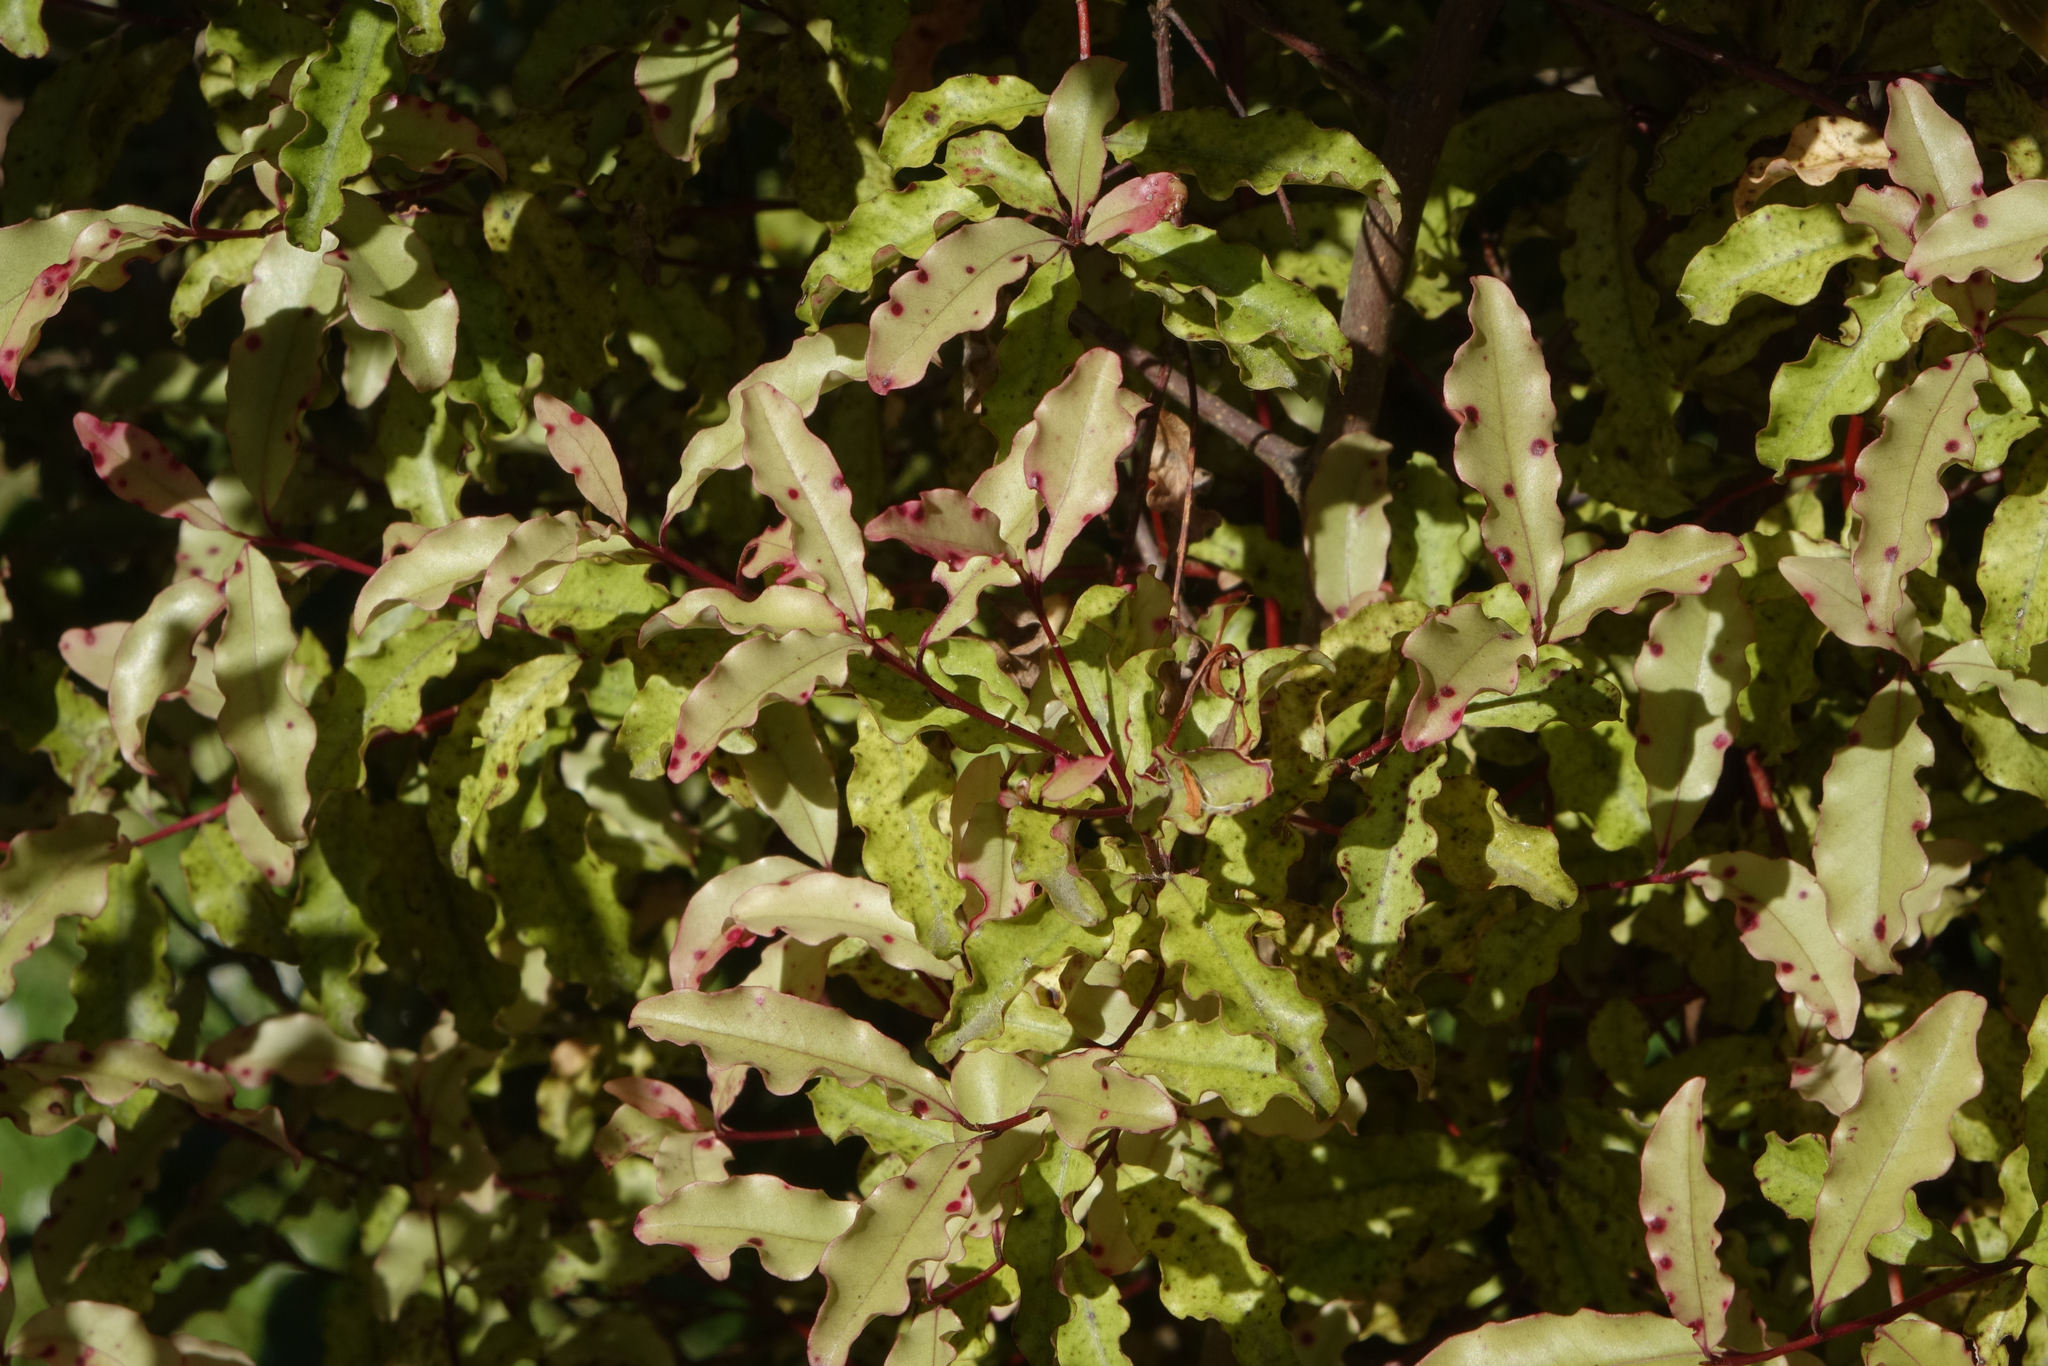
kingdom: Plantae
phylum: Tracheophyta
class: Magnoliopsida
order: Ericales
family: Primulaceae
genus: Myrsine
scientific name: Myrsine australis
